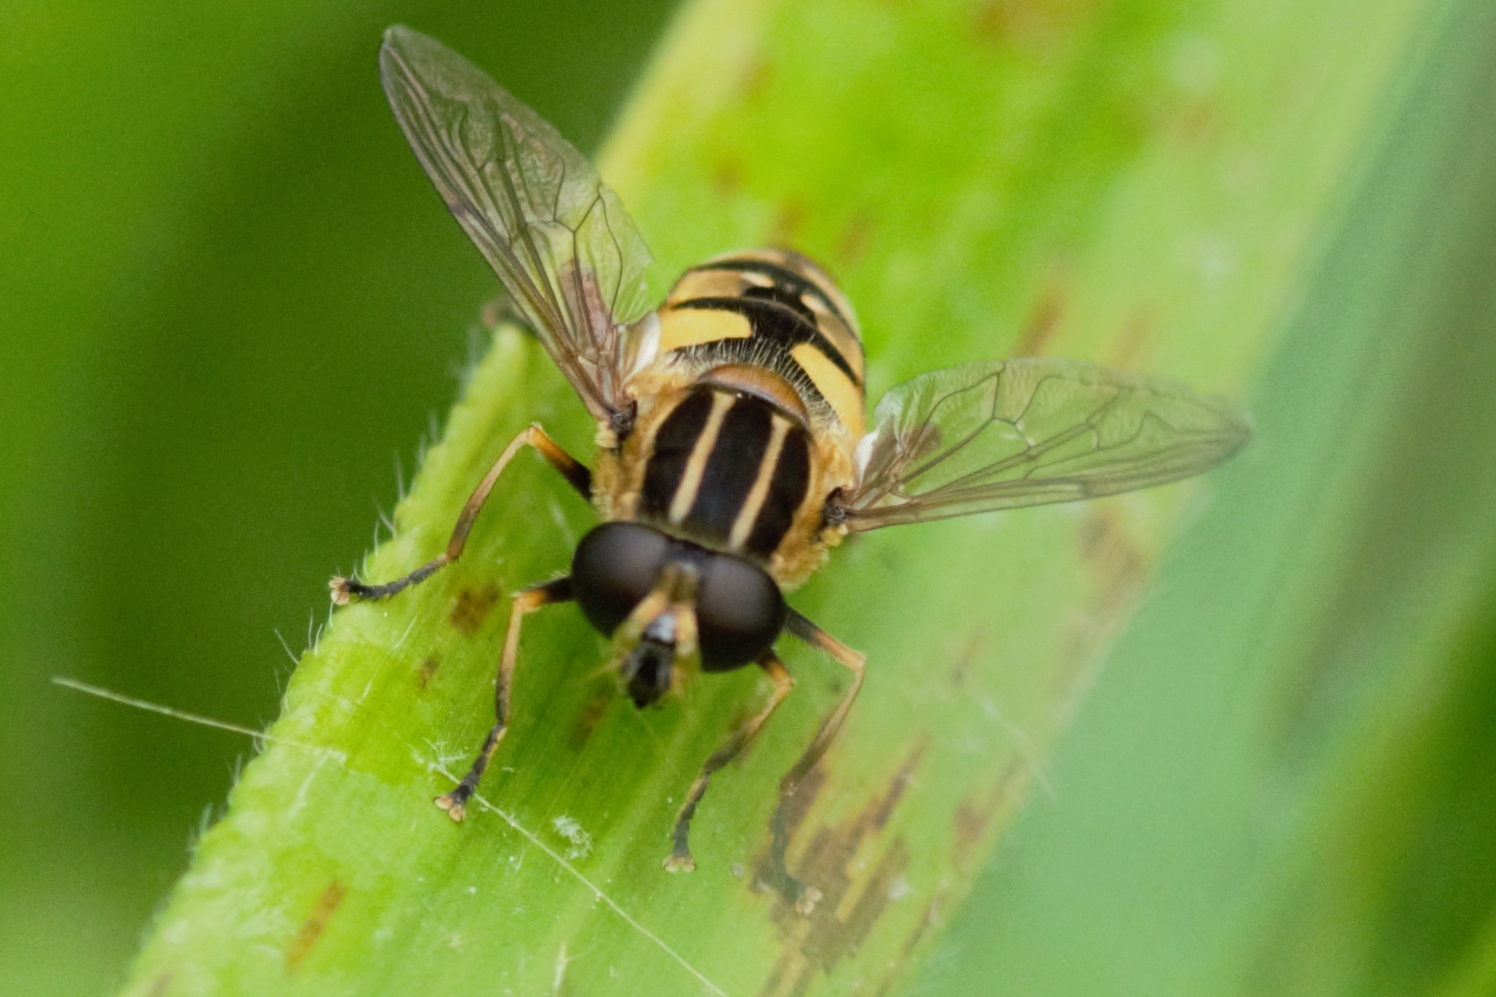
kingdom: Animalia
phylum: Arthropoda
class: Insecta
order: Diptera
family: Syrphidae
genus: Helophilus
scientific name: Helophilus pendulus
